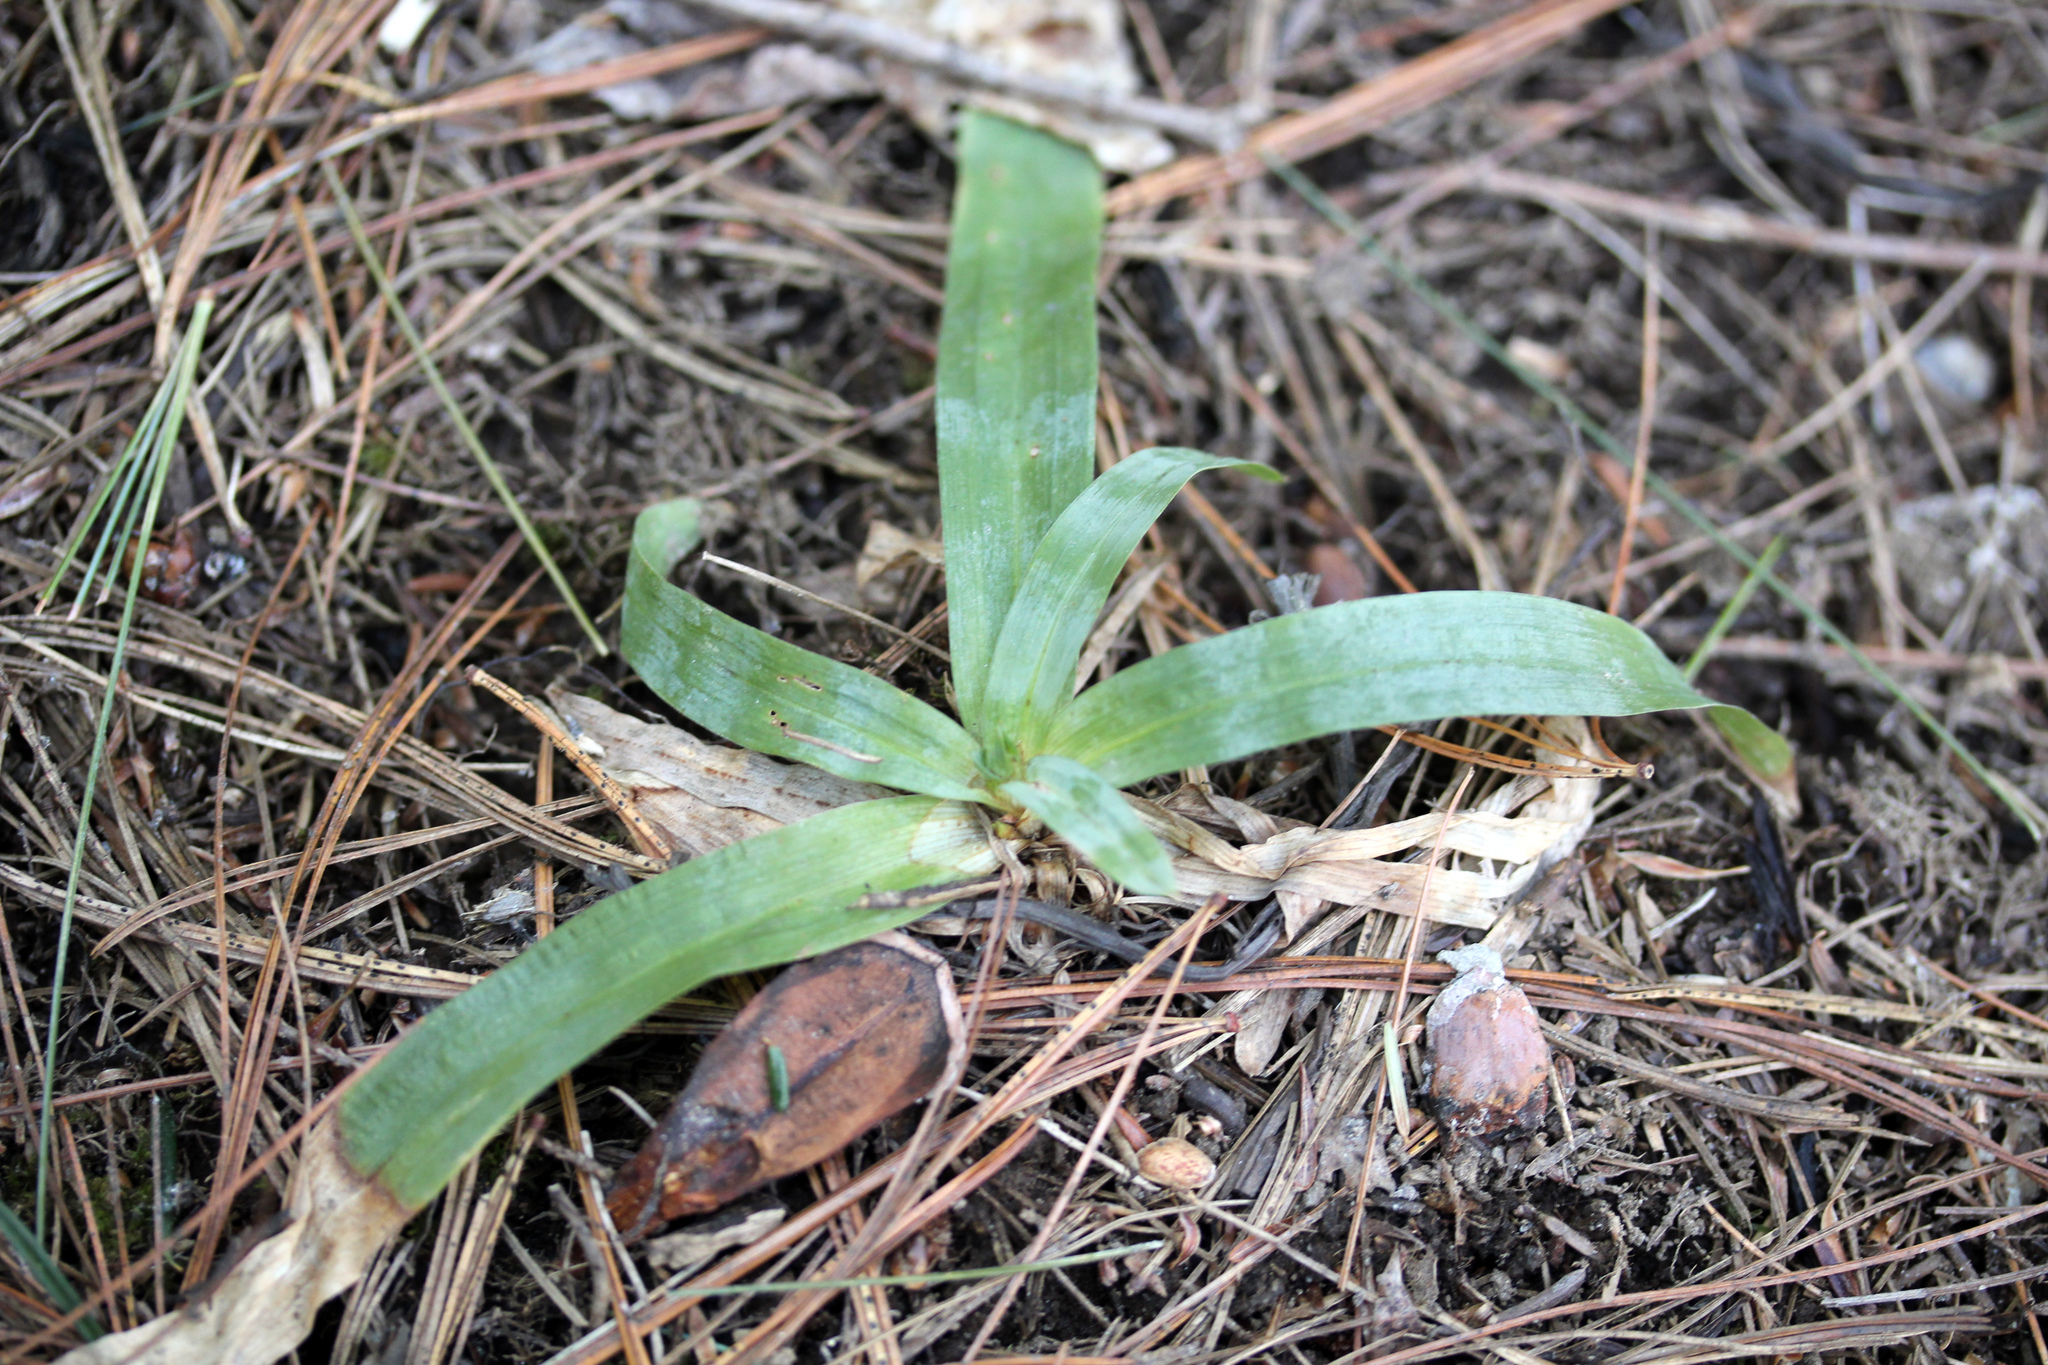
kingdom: Plantae
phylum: Tracheophyta
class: Liliopsida
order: Poales
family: Cyperaceae
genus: Carex
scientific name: Carex platyphylla
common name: Broad-leaved sedge
